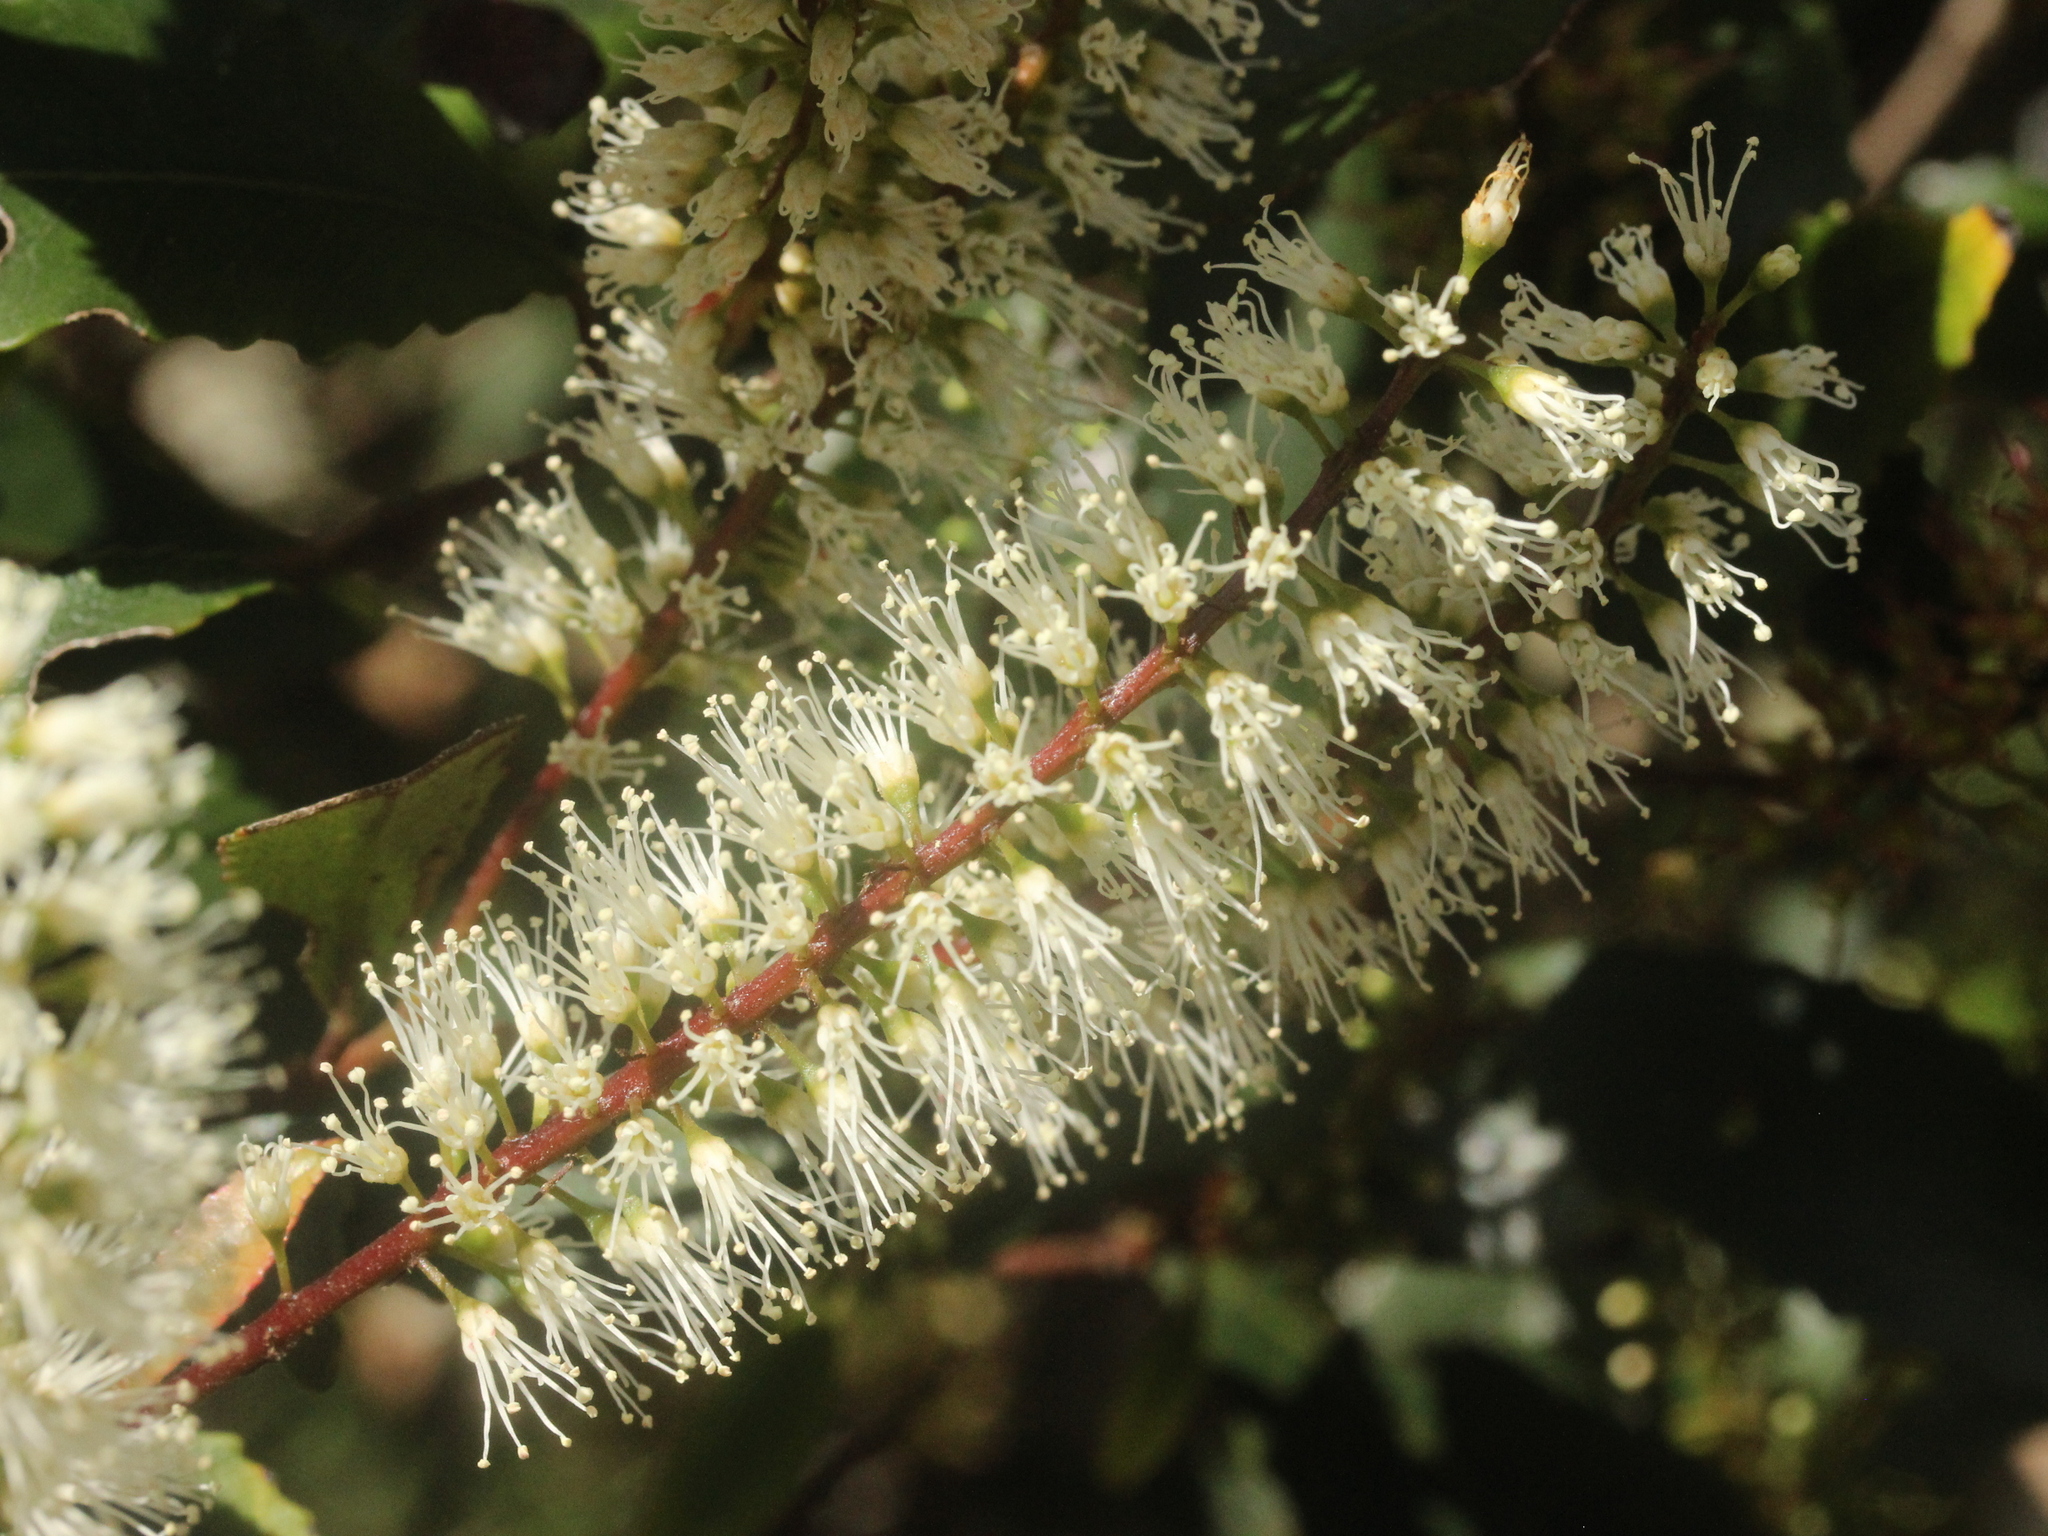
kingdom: Plantae
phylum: Tracheophyta
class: Magnoliopsida
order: Oxalidales
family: Cunoniaceae
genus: Pterophylla
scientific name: Pterophylla racemosa
